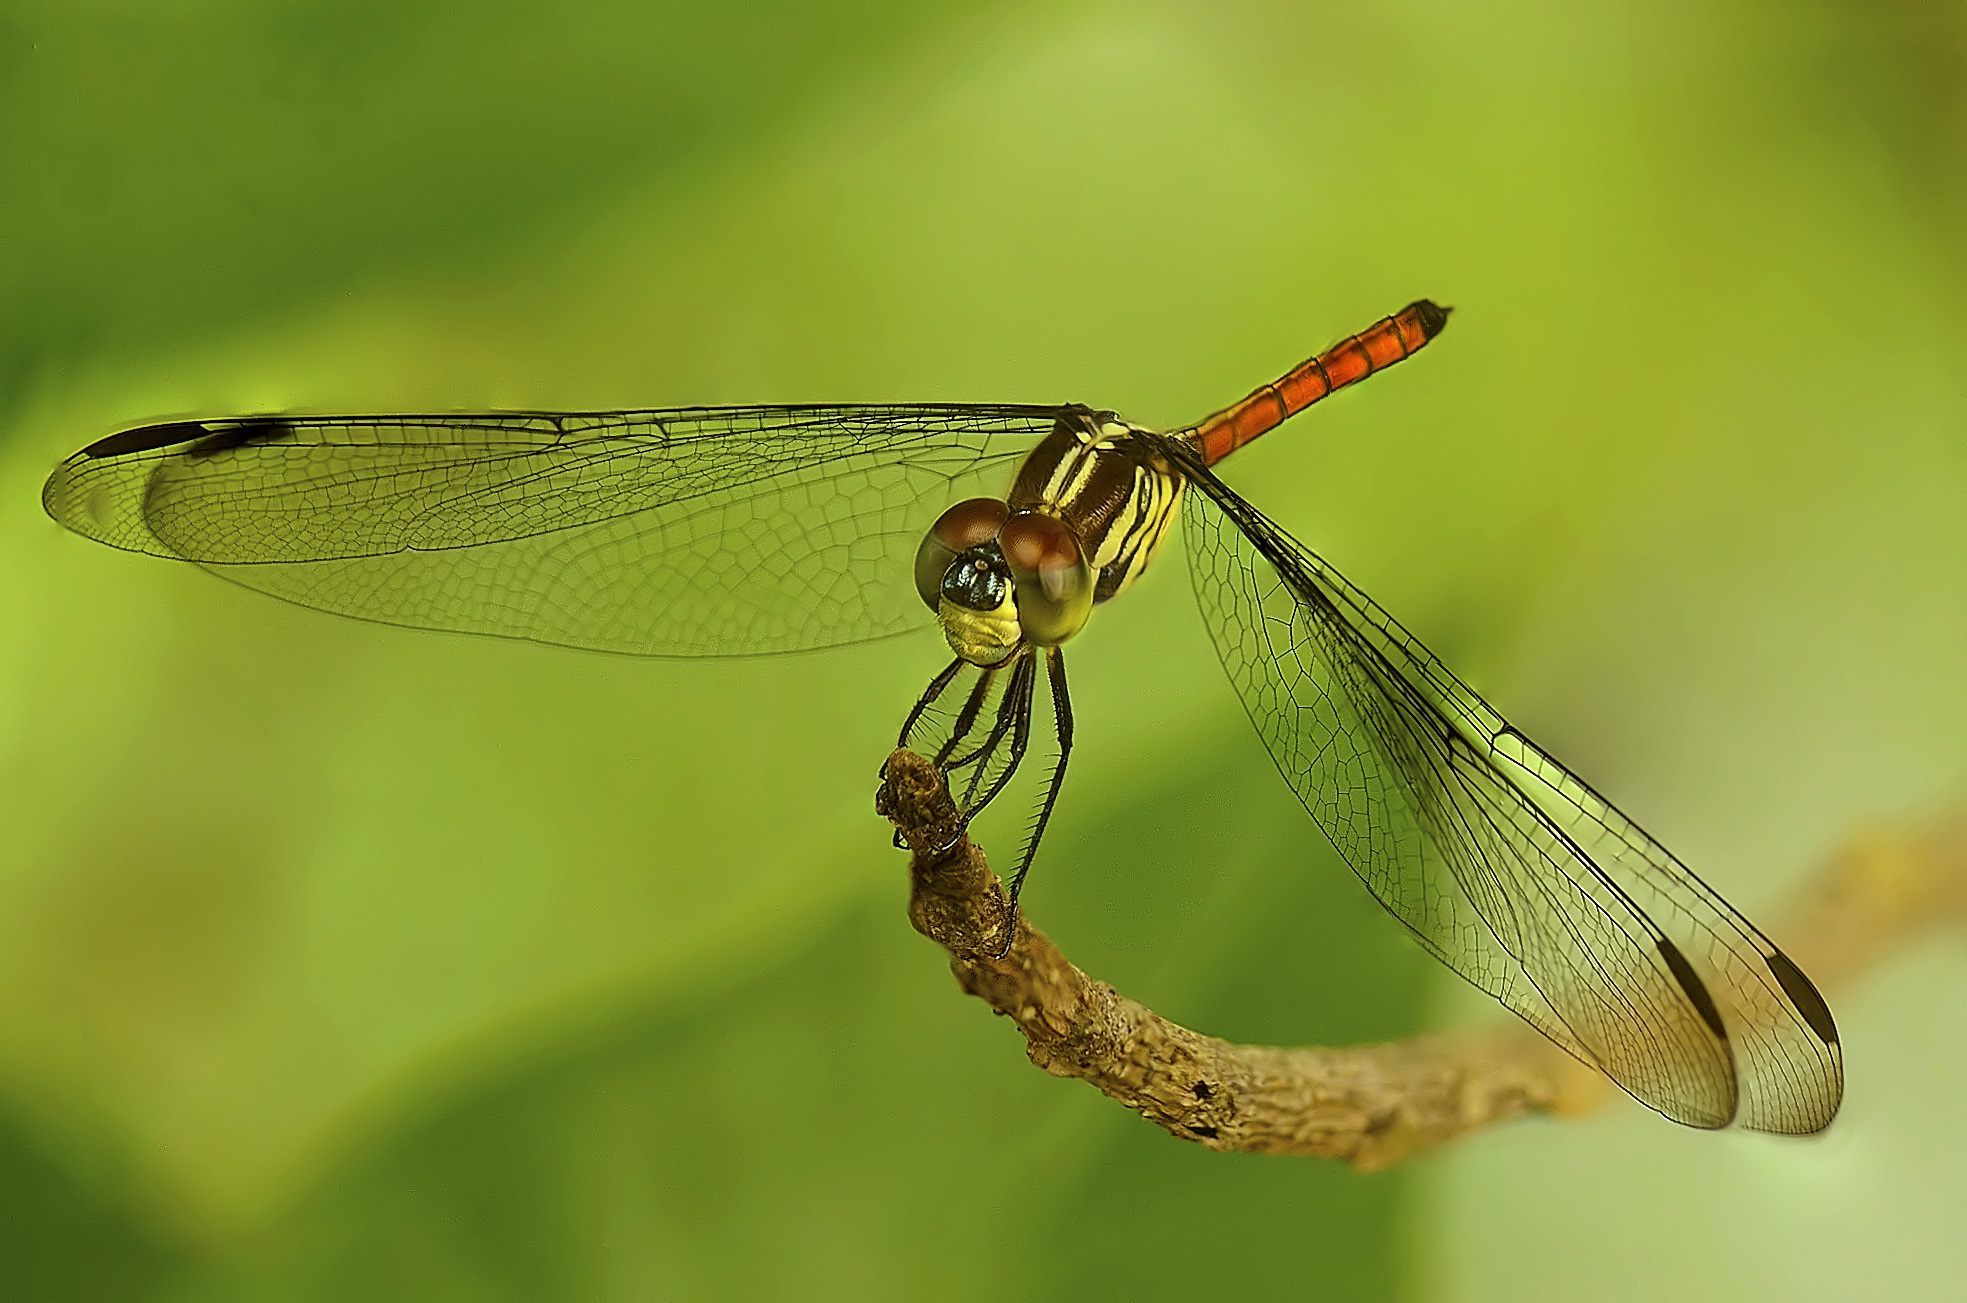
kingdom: Animalia
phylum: Arthropoda
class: Insecta
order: Odonata
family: Libellulidae
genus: Lathrecista
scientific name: Lathrecista asiatica
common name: Scarlet grenadier
